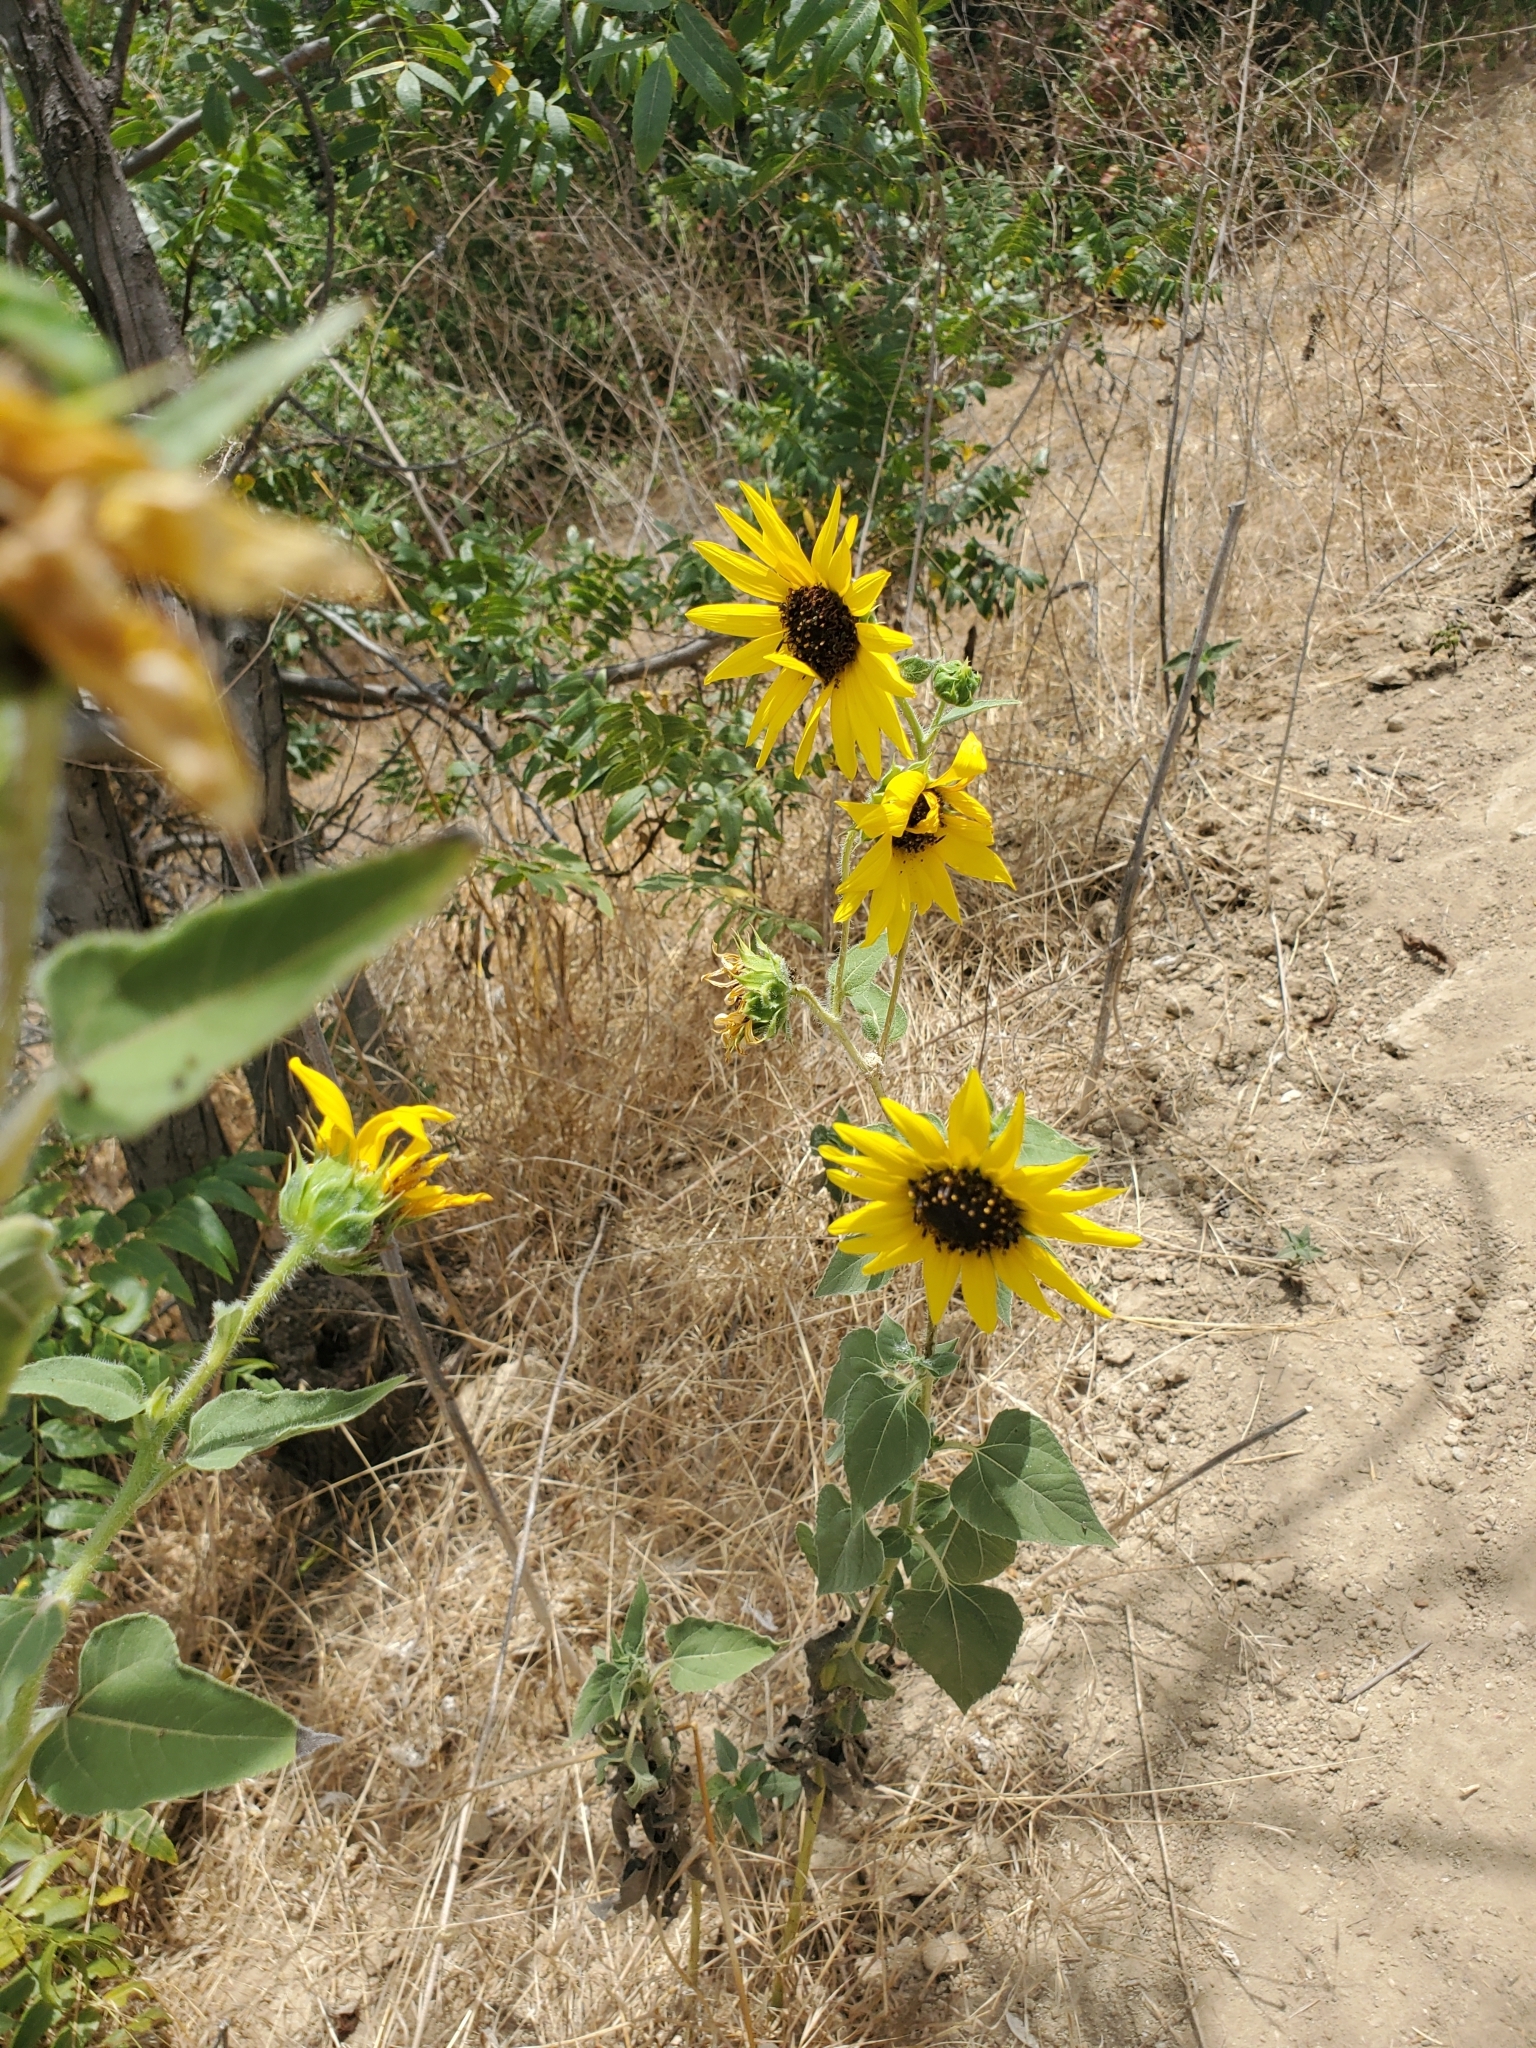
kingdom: Plantae
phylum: Tracheophyta
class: Magnoliopsida
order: Asterales
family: Asteraceae
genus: Helianthus
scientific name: Helianthus annuus
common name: Sunflower
